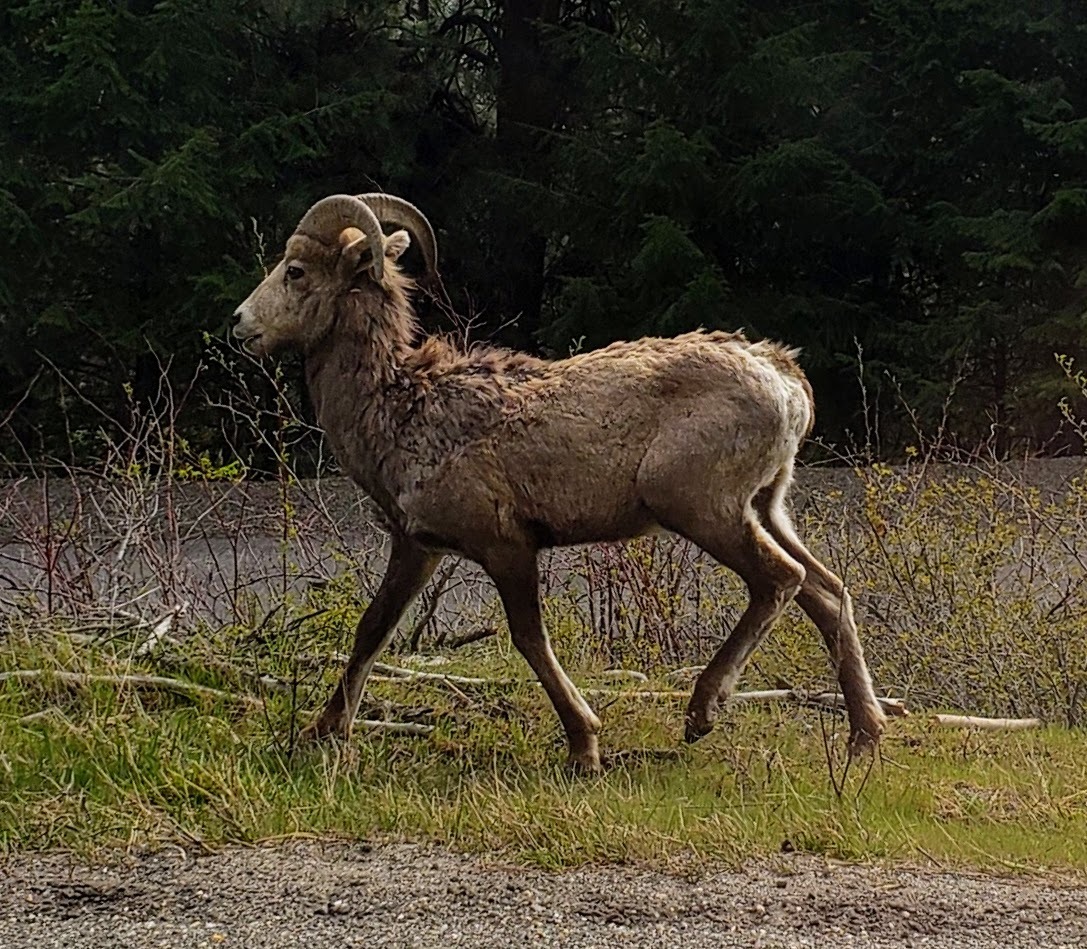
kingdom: Animalia
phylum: Chordata
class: Mammalia
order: Artiodactyla
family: Bovidae
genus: Ovis
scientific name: Ovis canadensis
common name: Bighorn sheep
